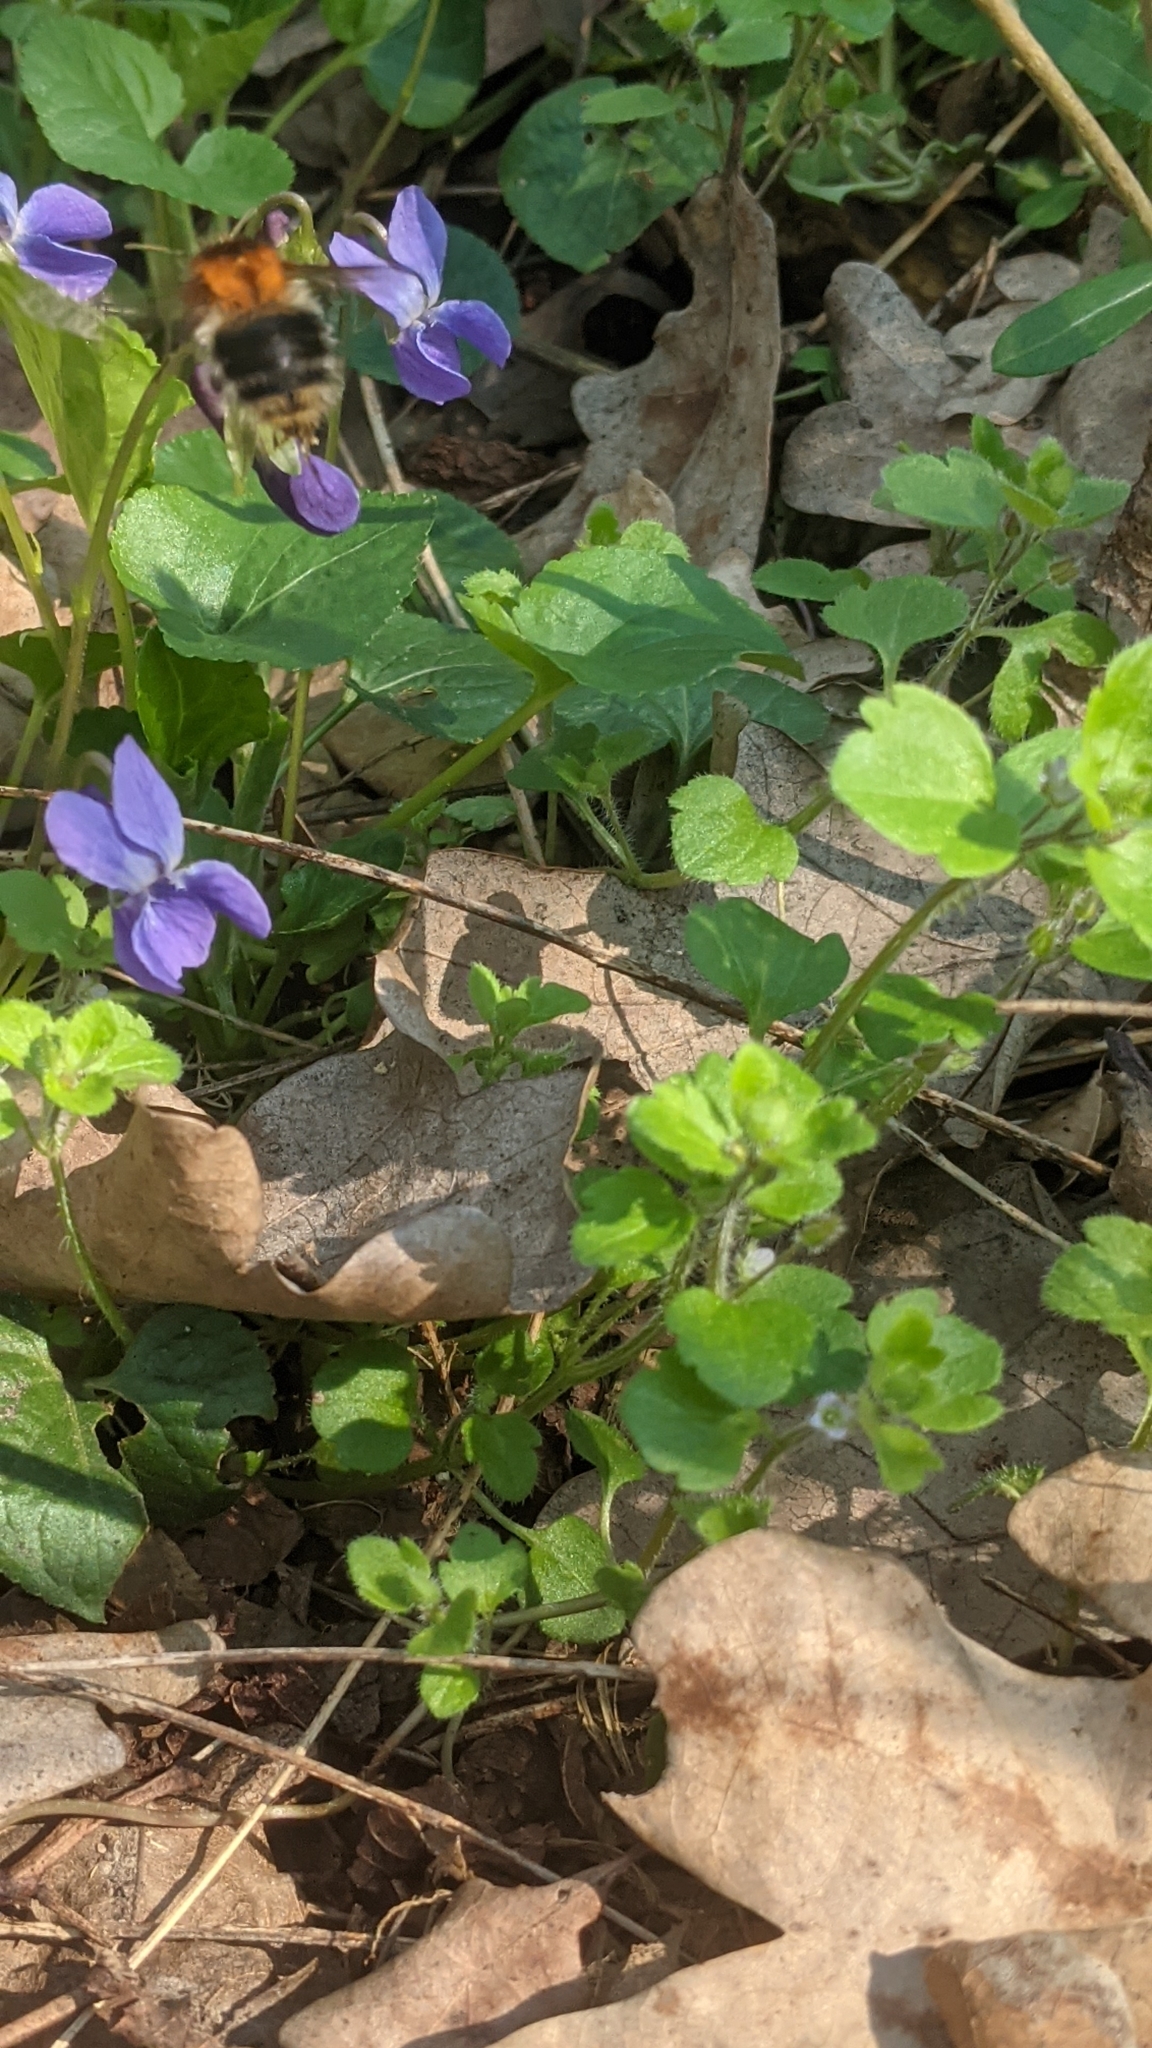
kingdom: Animalia
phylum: Arthropoda
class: Insecta
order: Hymenoptera
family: Apidae
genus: Bombus
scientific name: Bombus pascuorum
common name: Common carder bee
